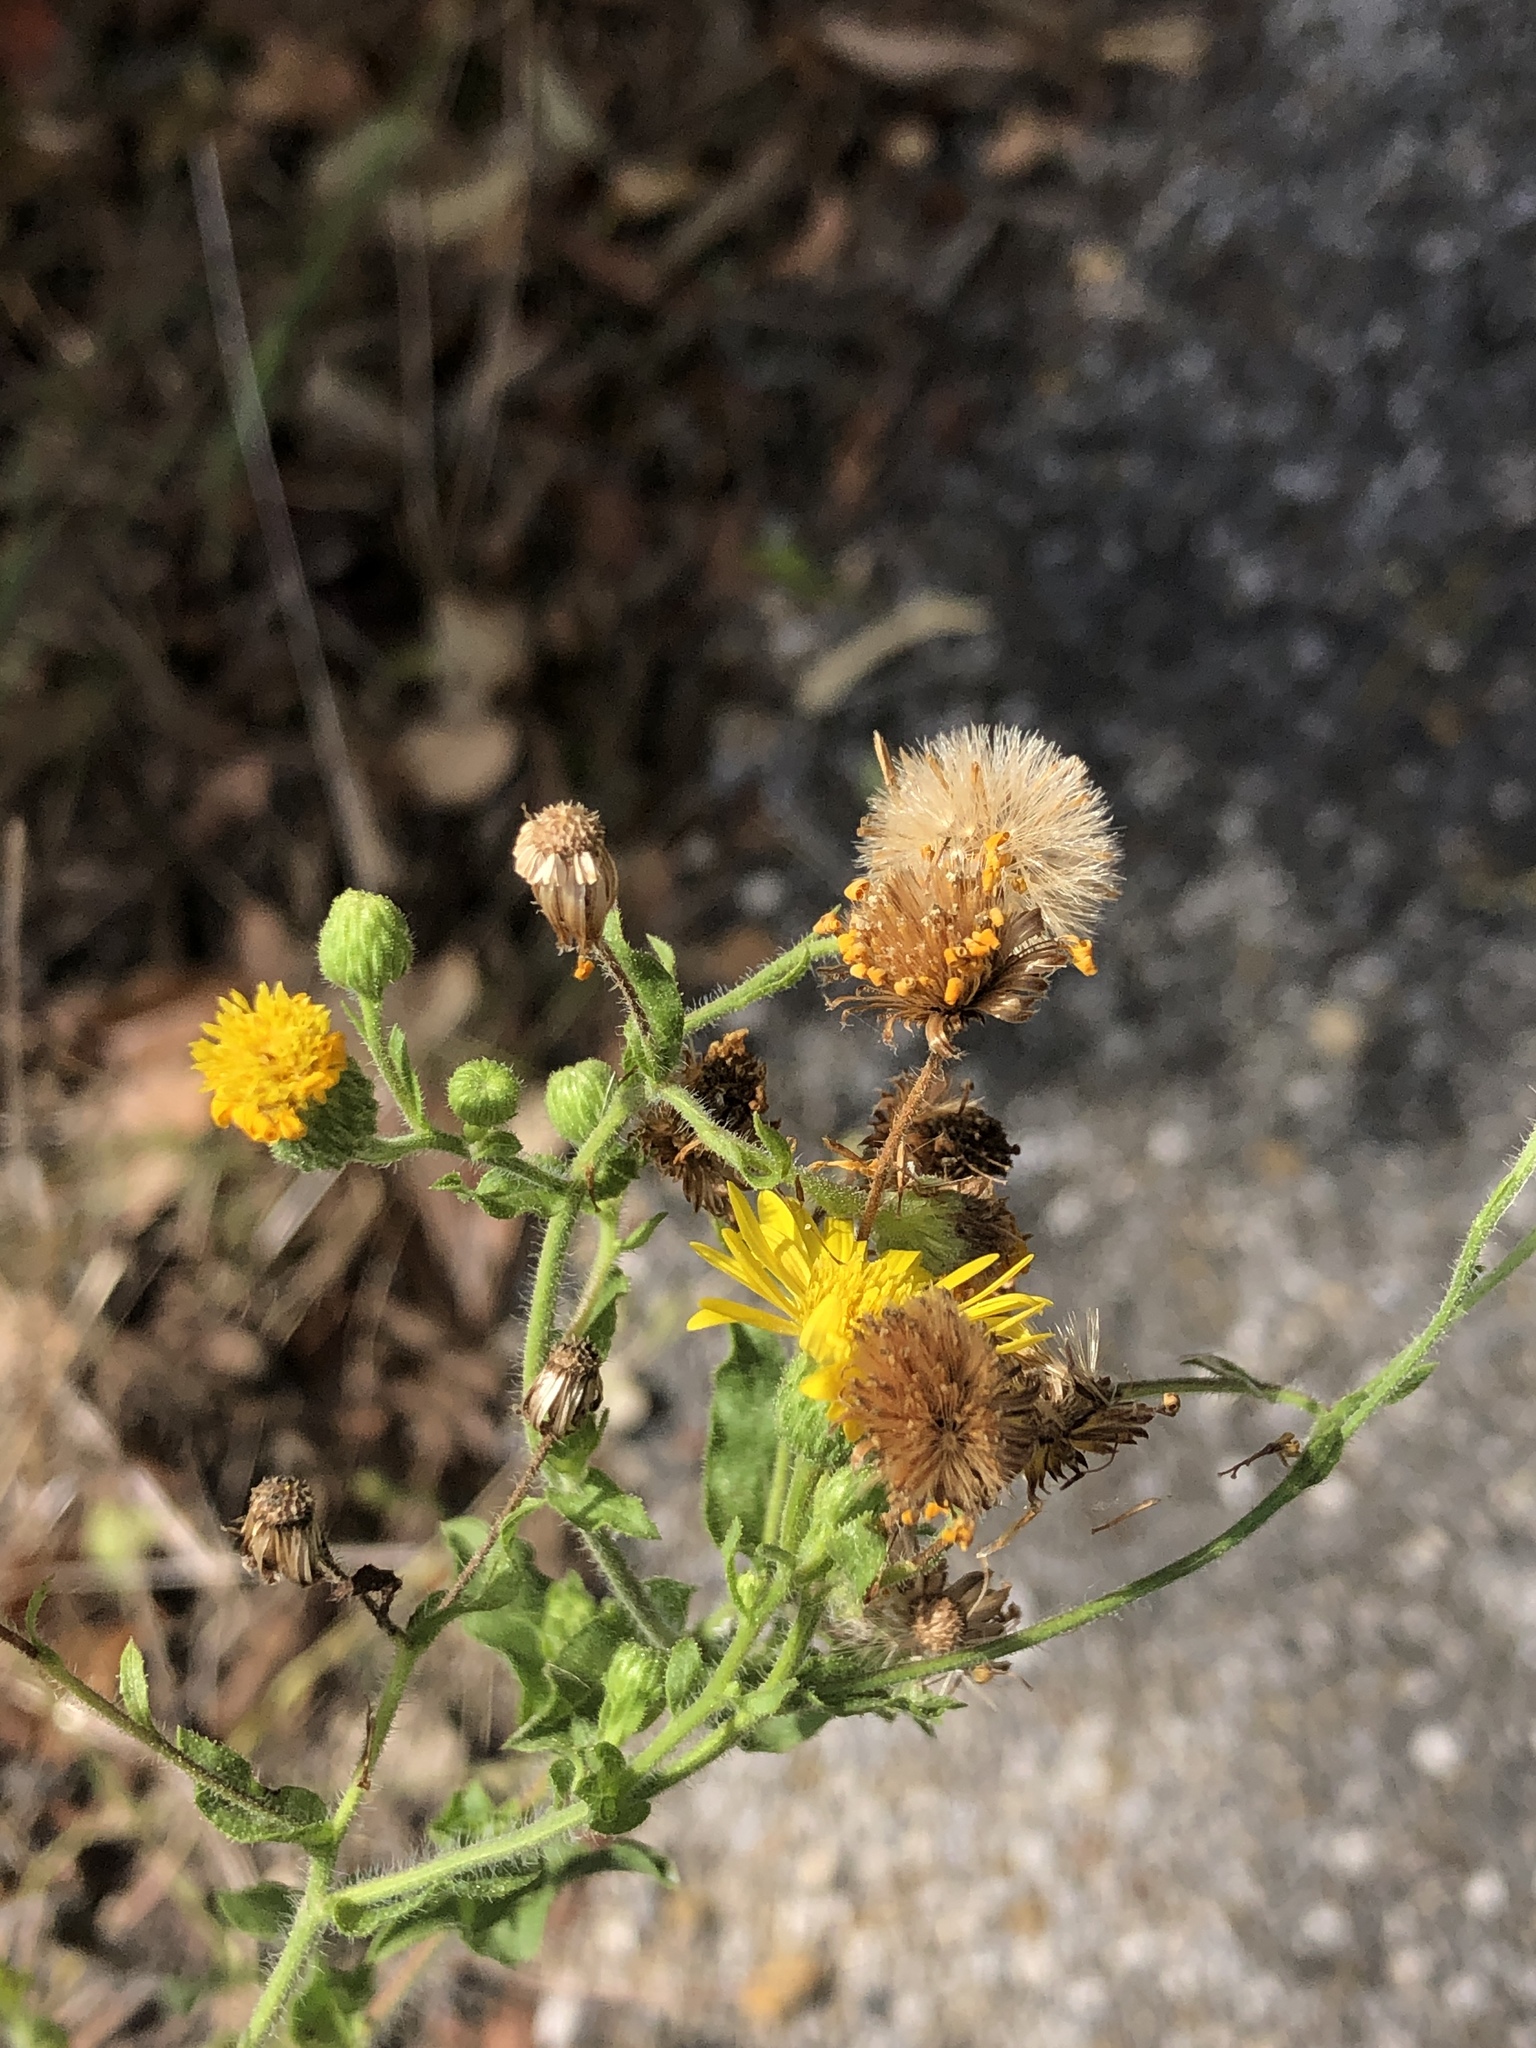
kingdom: Plantae
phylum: Tracheophyta
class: Magnoliopsida
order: Asterales
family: Asteraceae
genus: Heterotheca
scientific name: Heterotheca subaxillaris
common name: Camphorweed
